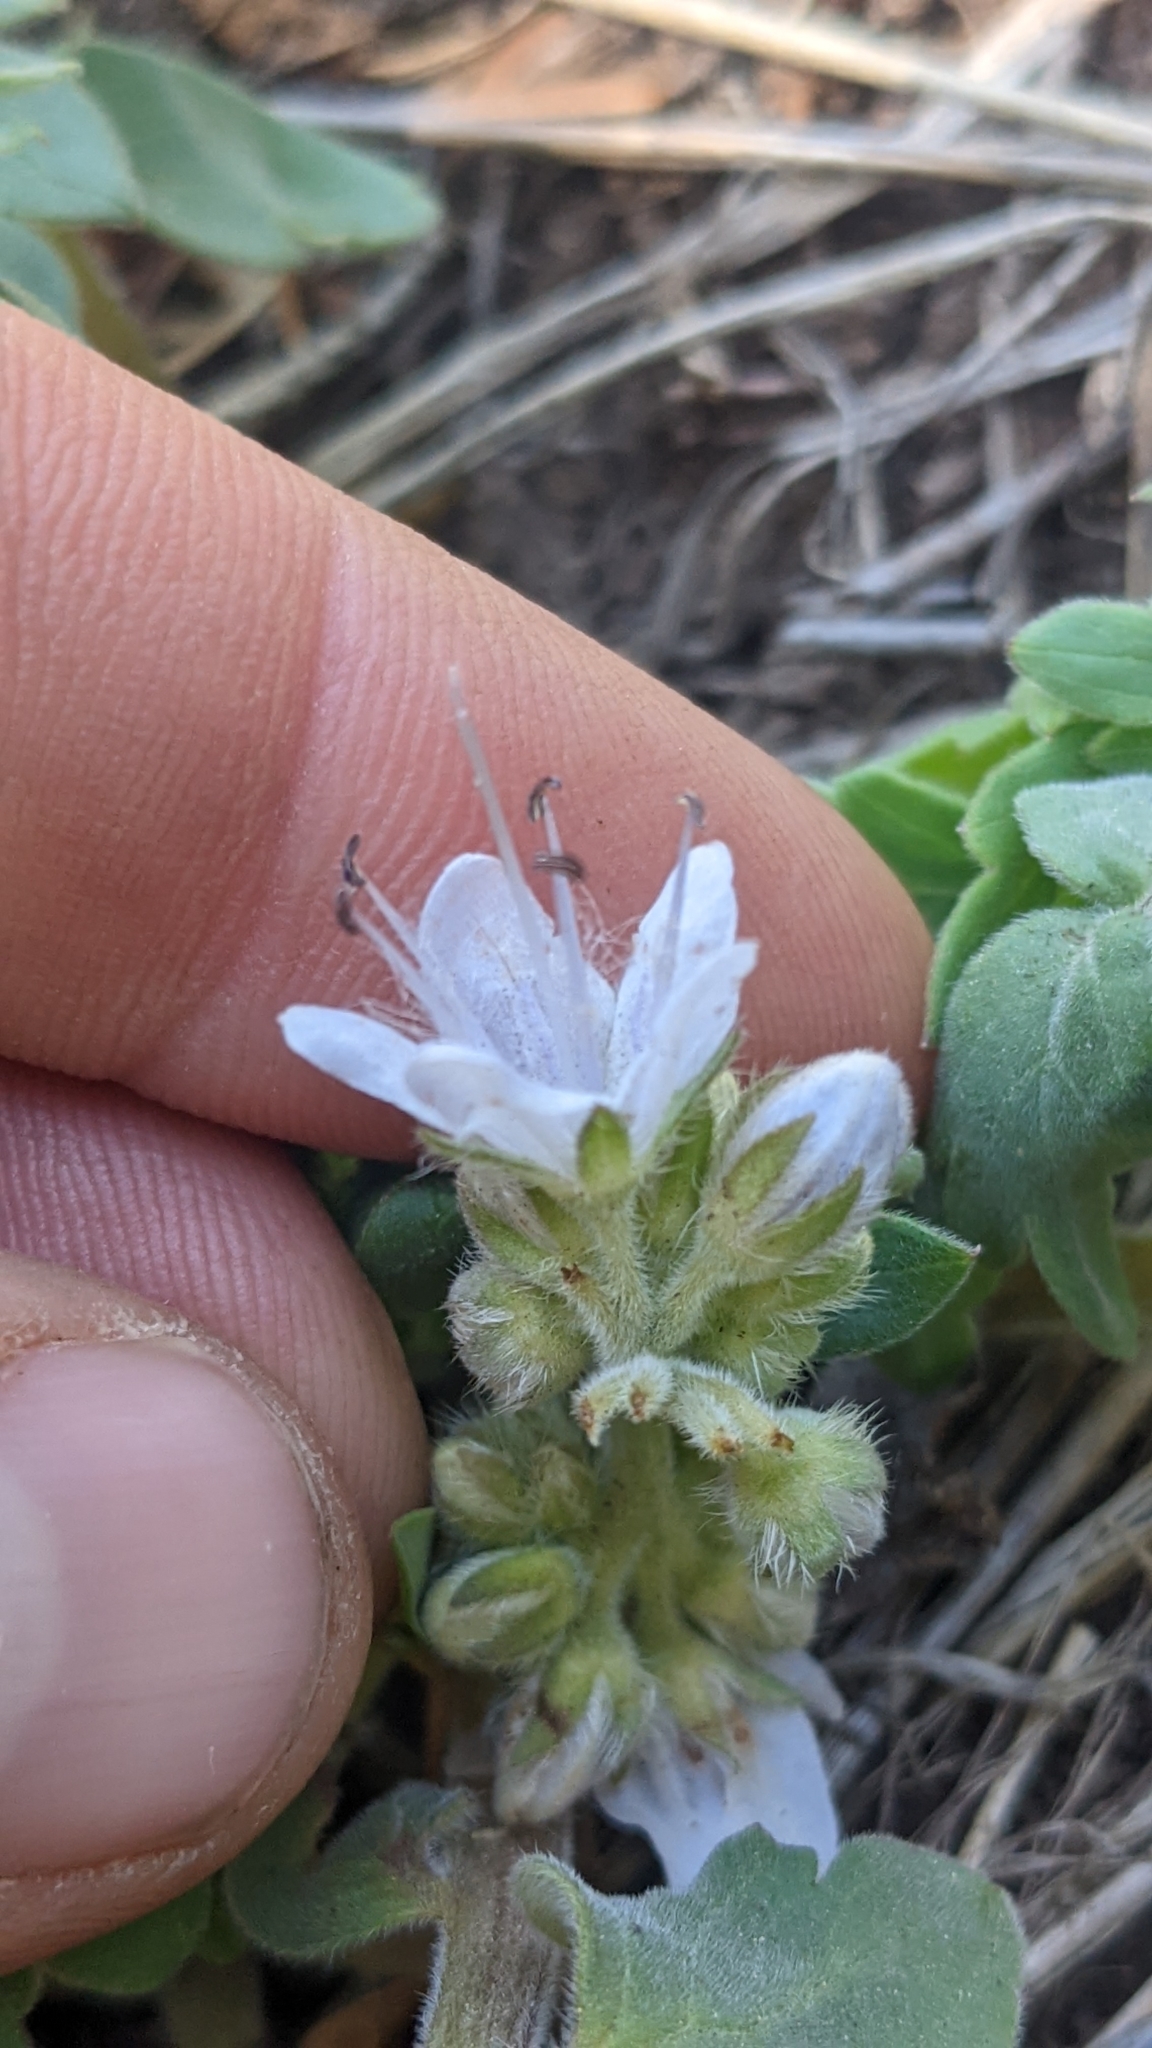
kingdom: Plantae
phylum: Tracheophyta
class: Magnoliopsida
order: Boraginales
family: Hydrophyllaceae
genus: Hydrophyllum
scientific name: Hydrophyllum occidentale
